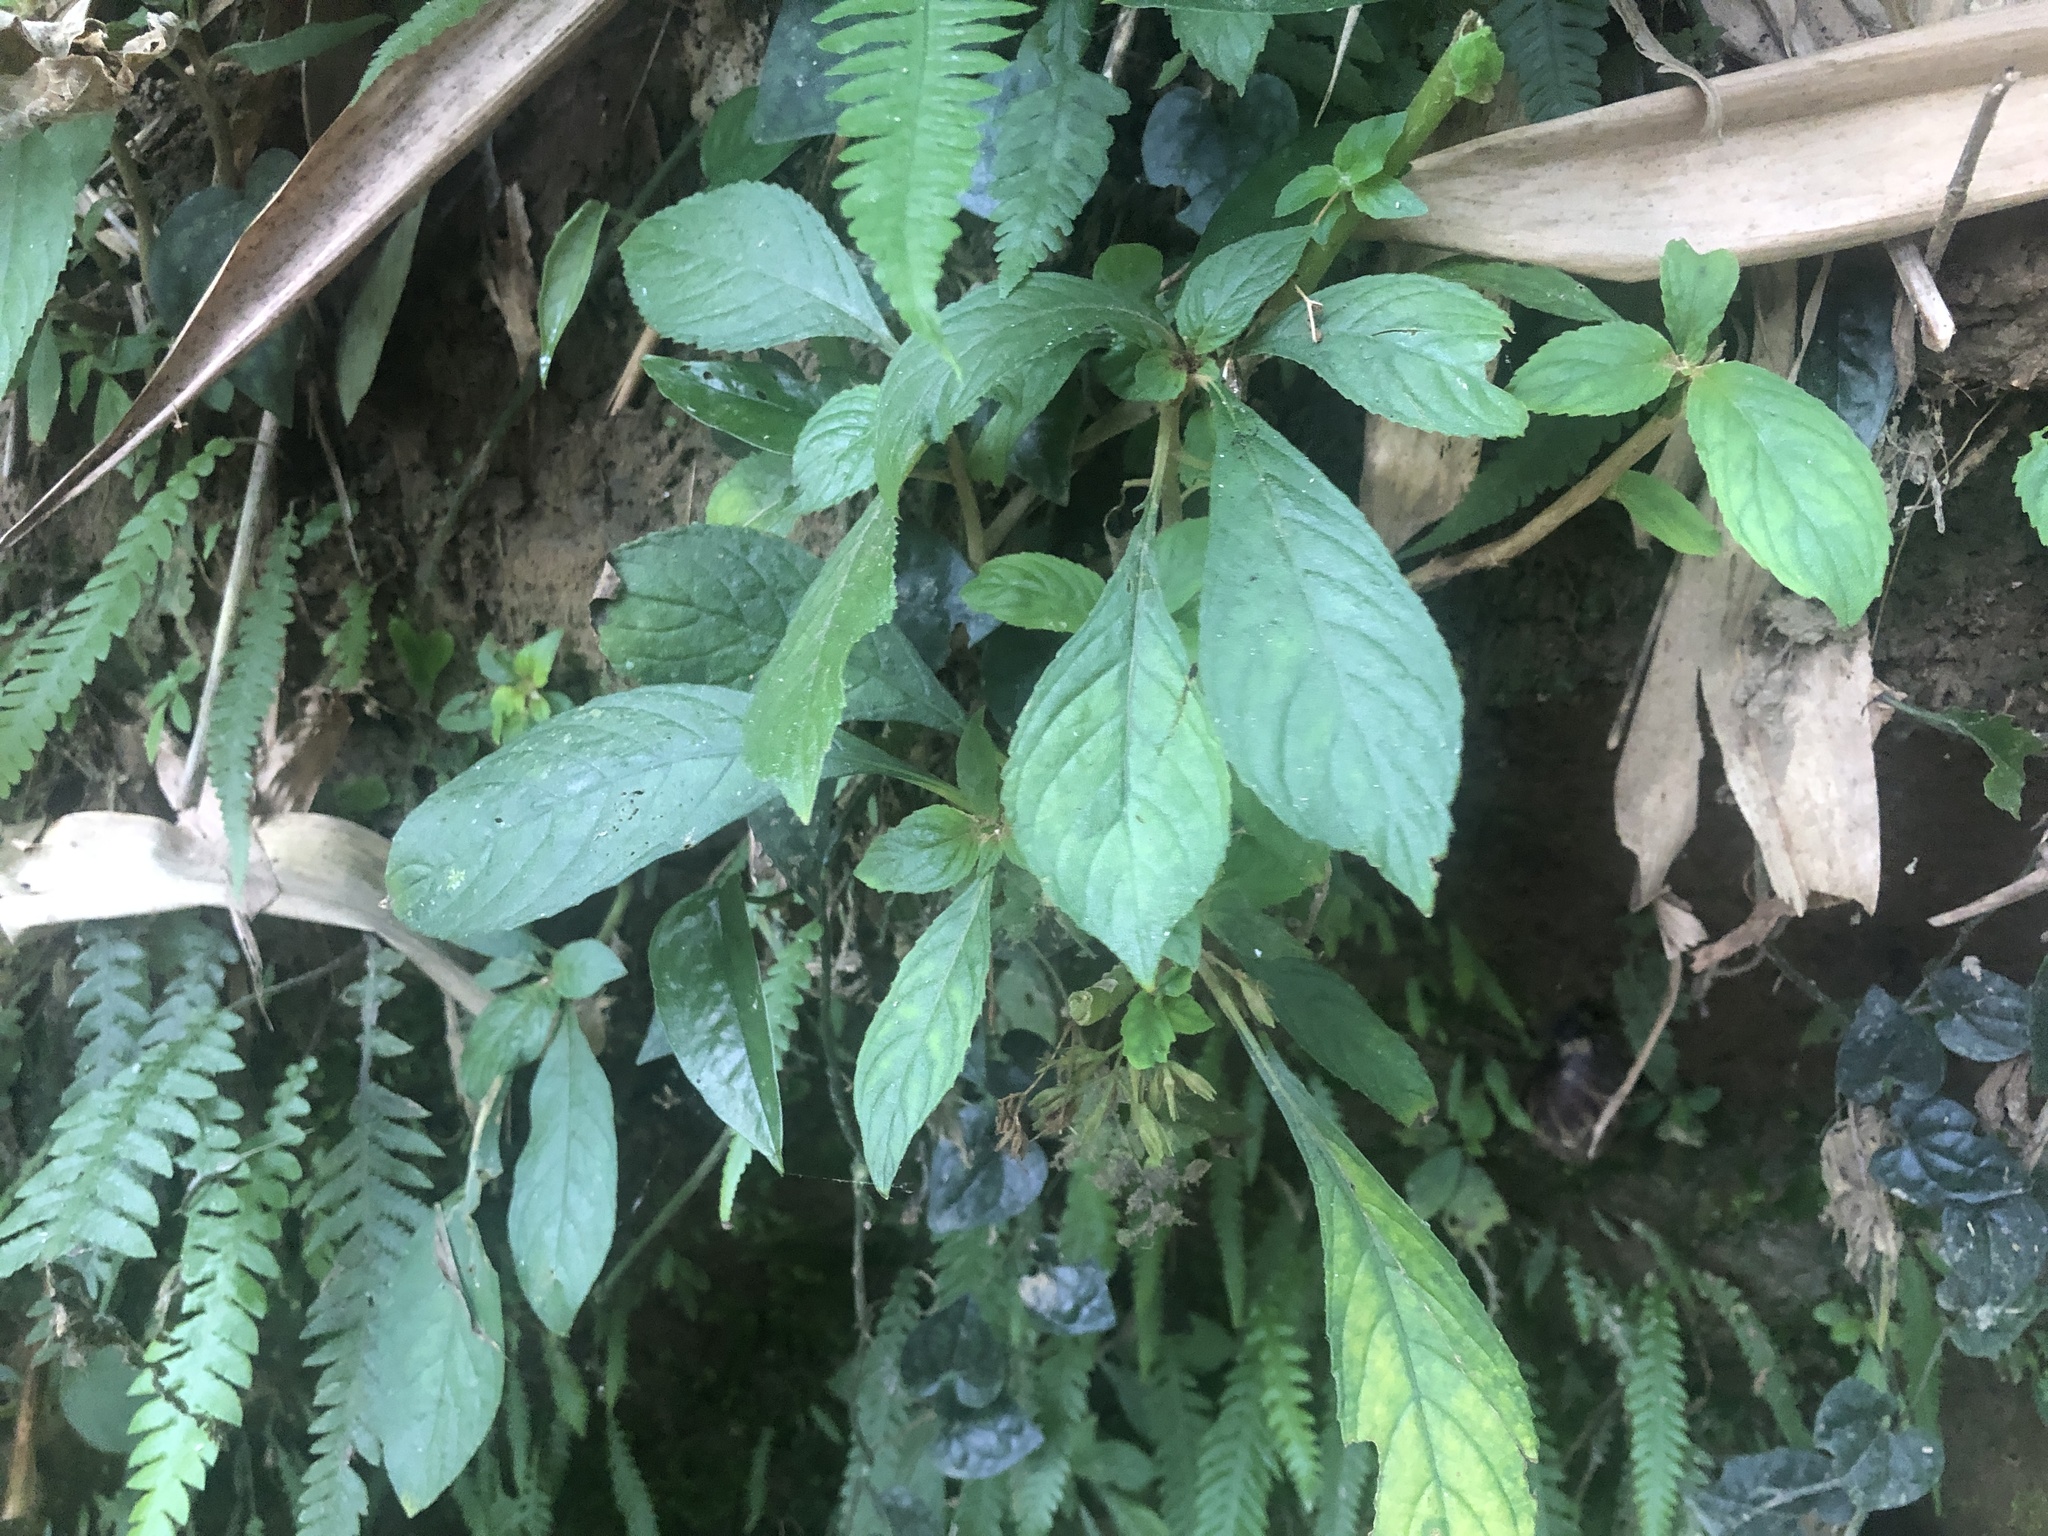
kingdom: Plantae
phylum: Tracheophyta
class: Magnoliopsida
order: Lamiales
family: Gesneriaceae
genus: Rhynchotechum
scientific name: Rhynchotechum discolor
